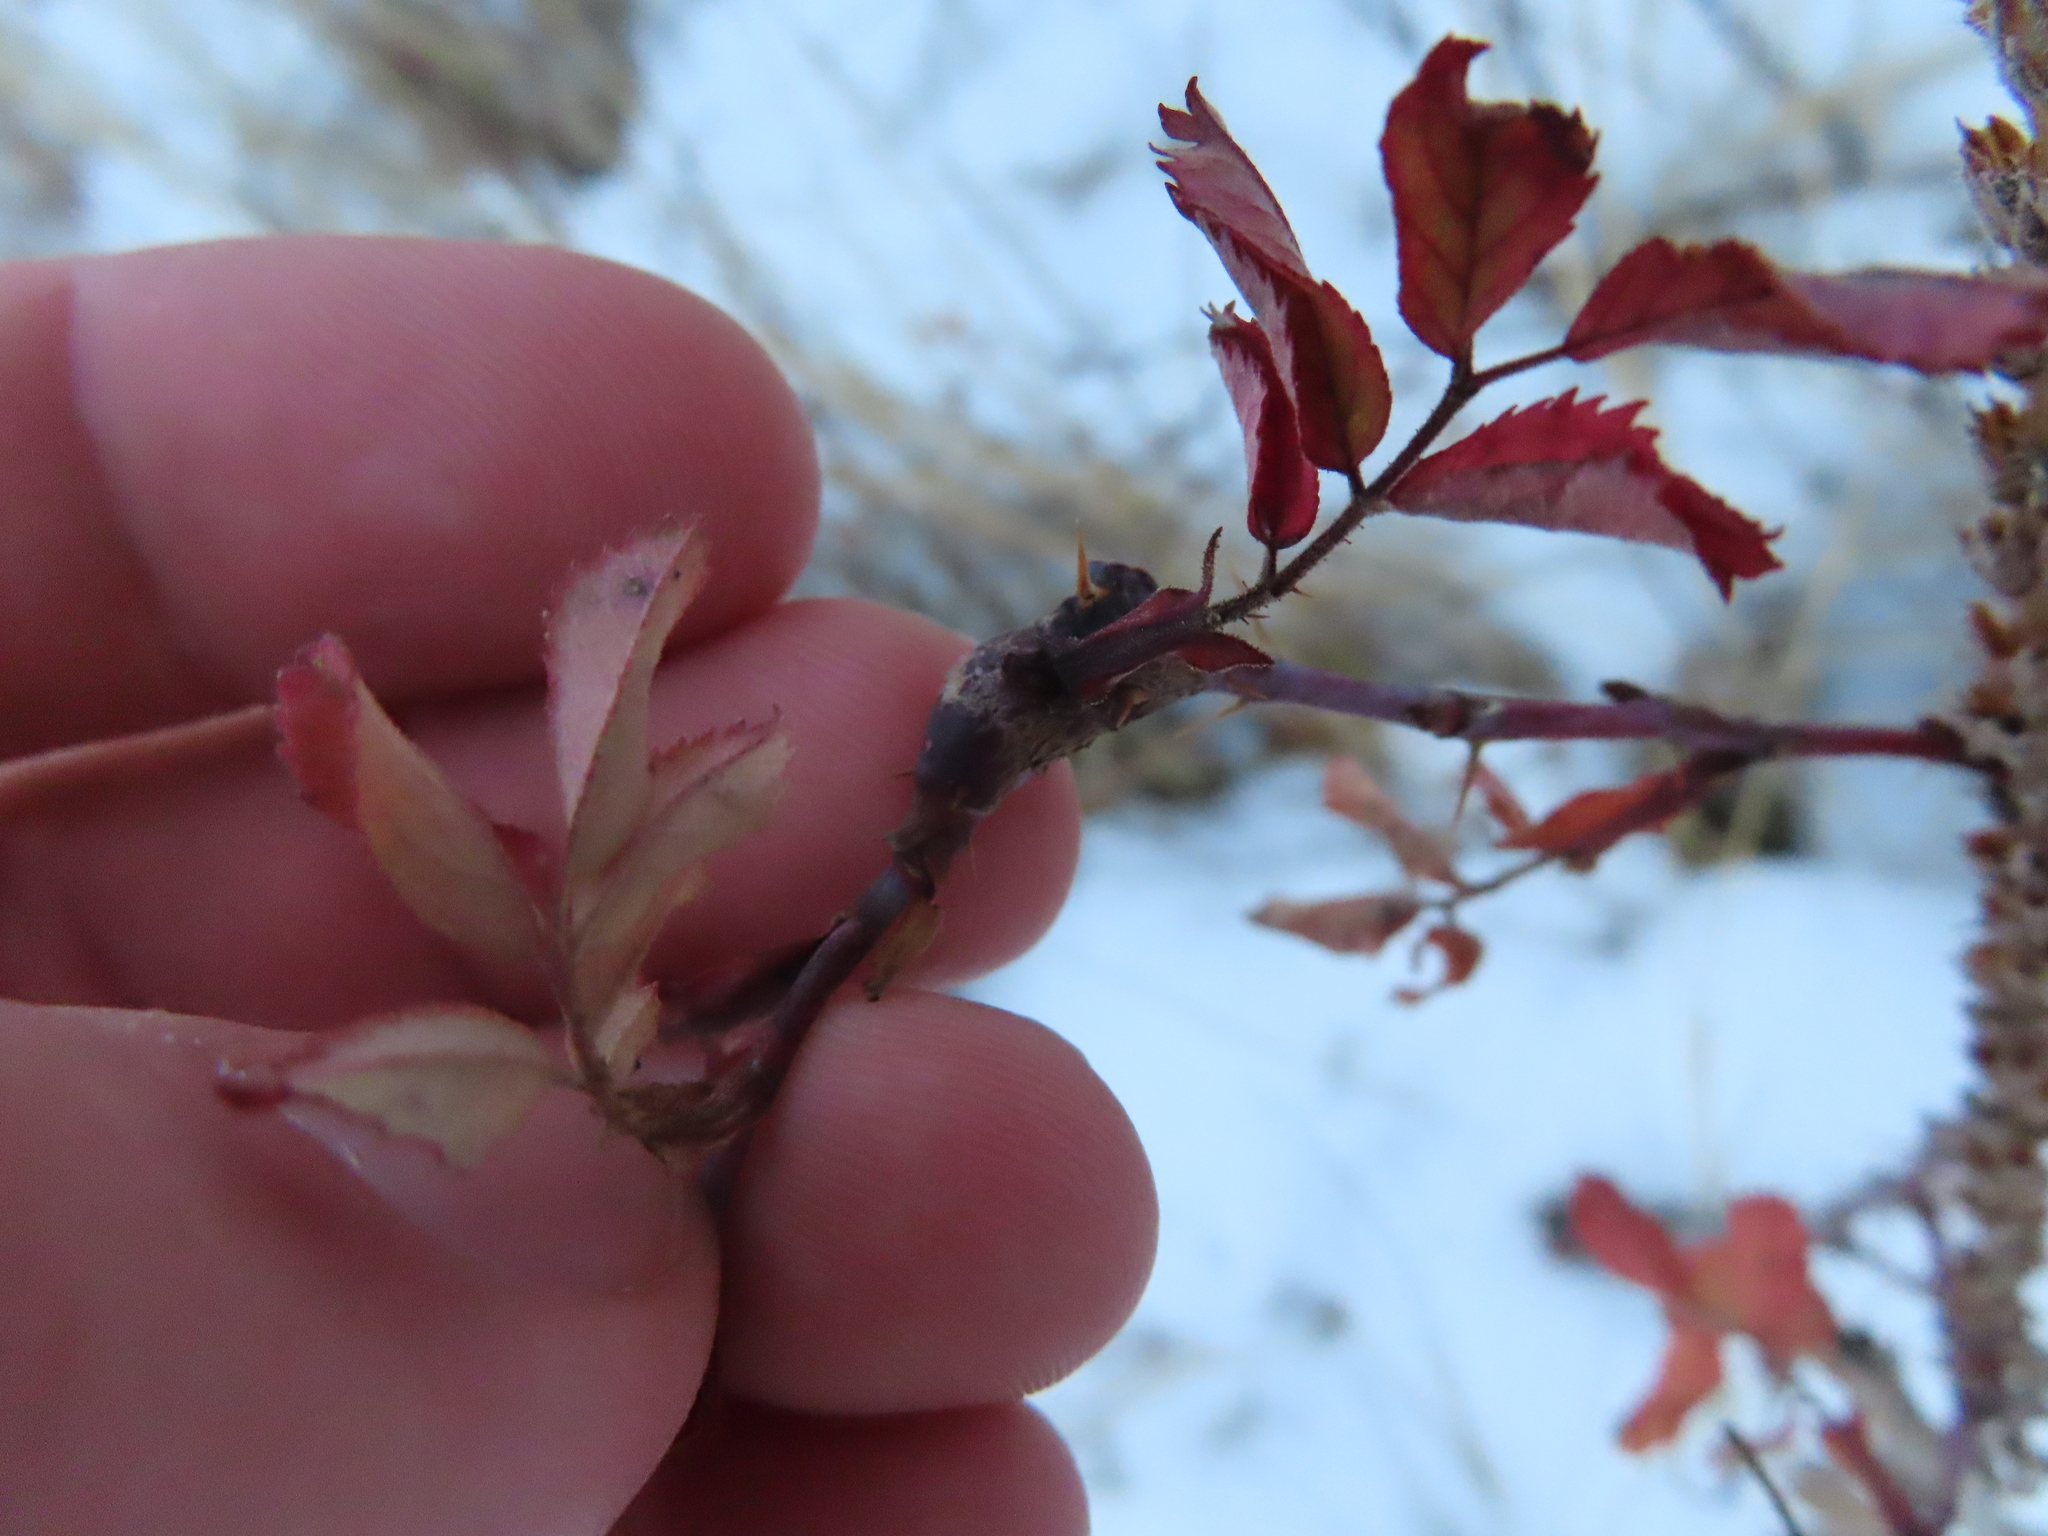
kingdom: Animalia
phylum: Arthropoda
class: Insecta
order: Diptera
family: Cecidomyiidae
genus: Rabdophaga
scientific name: Rabdophaga rosacea
